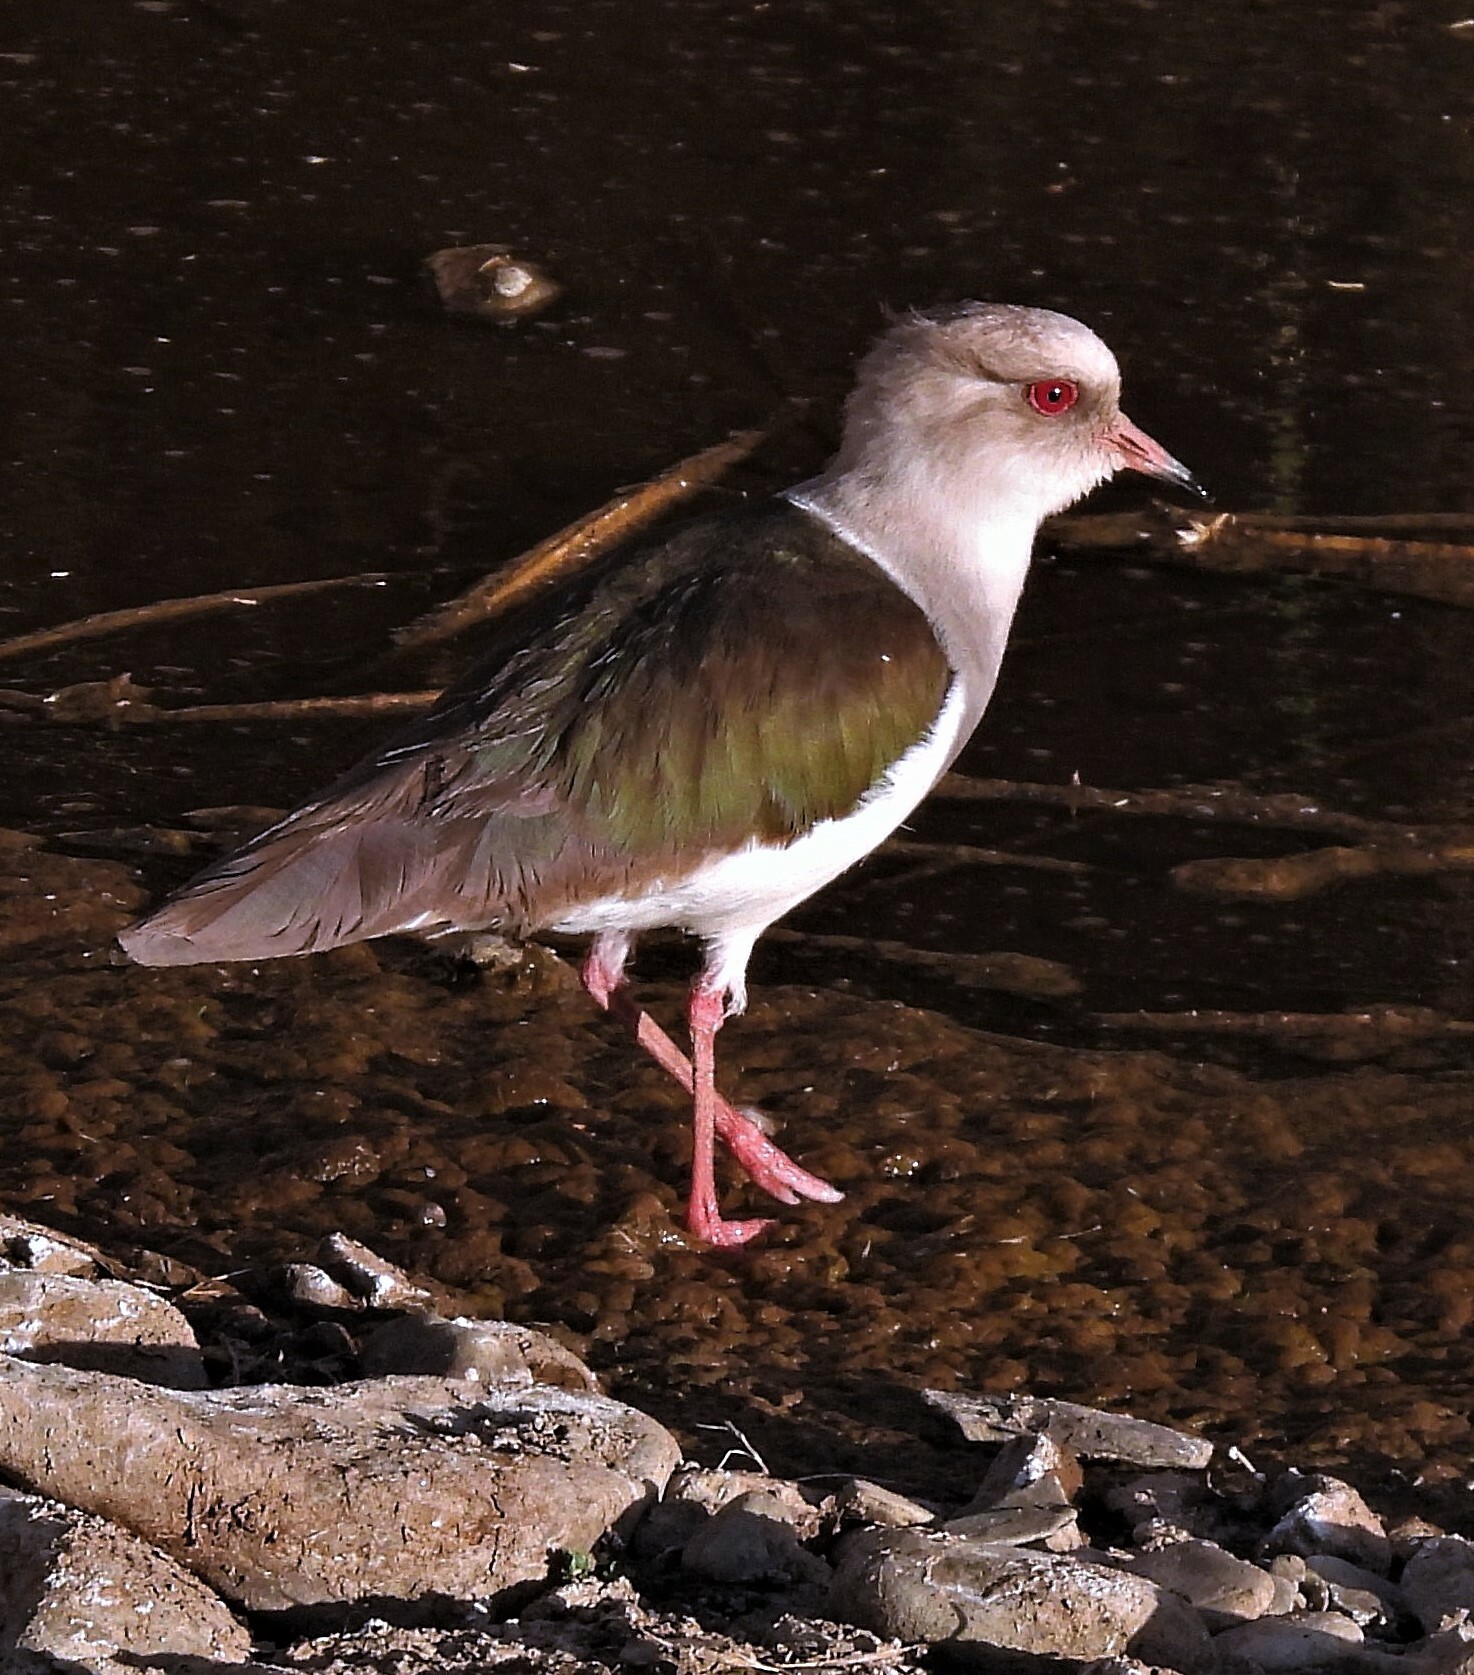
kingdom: Animalia
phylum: Chordata
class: Aves
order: Charadriiformes
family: Charadriidae
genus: Vanellus
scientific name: Vanellus resplendens
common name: Andean lapwing
